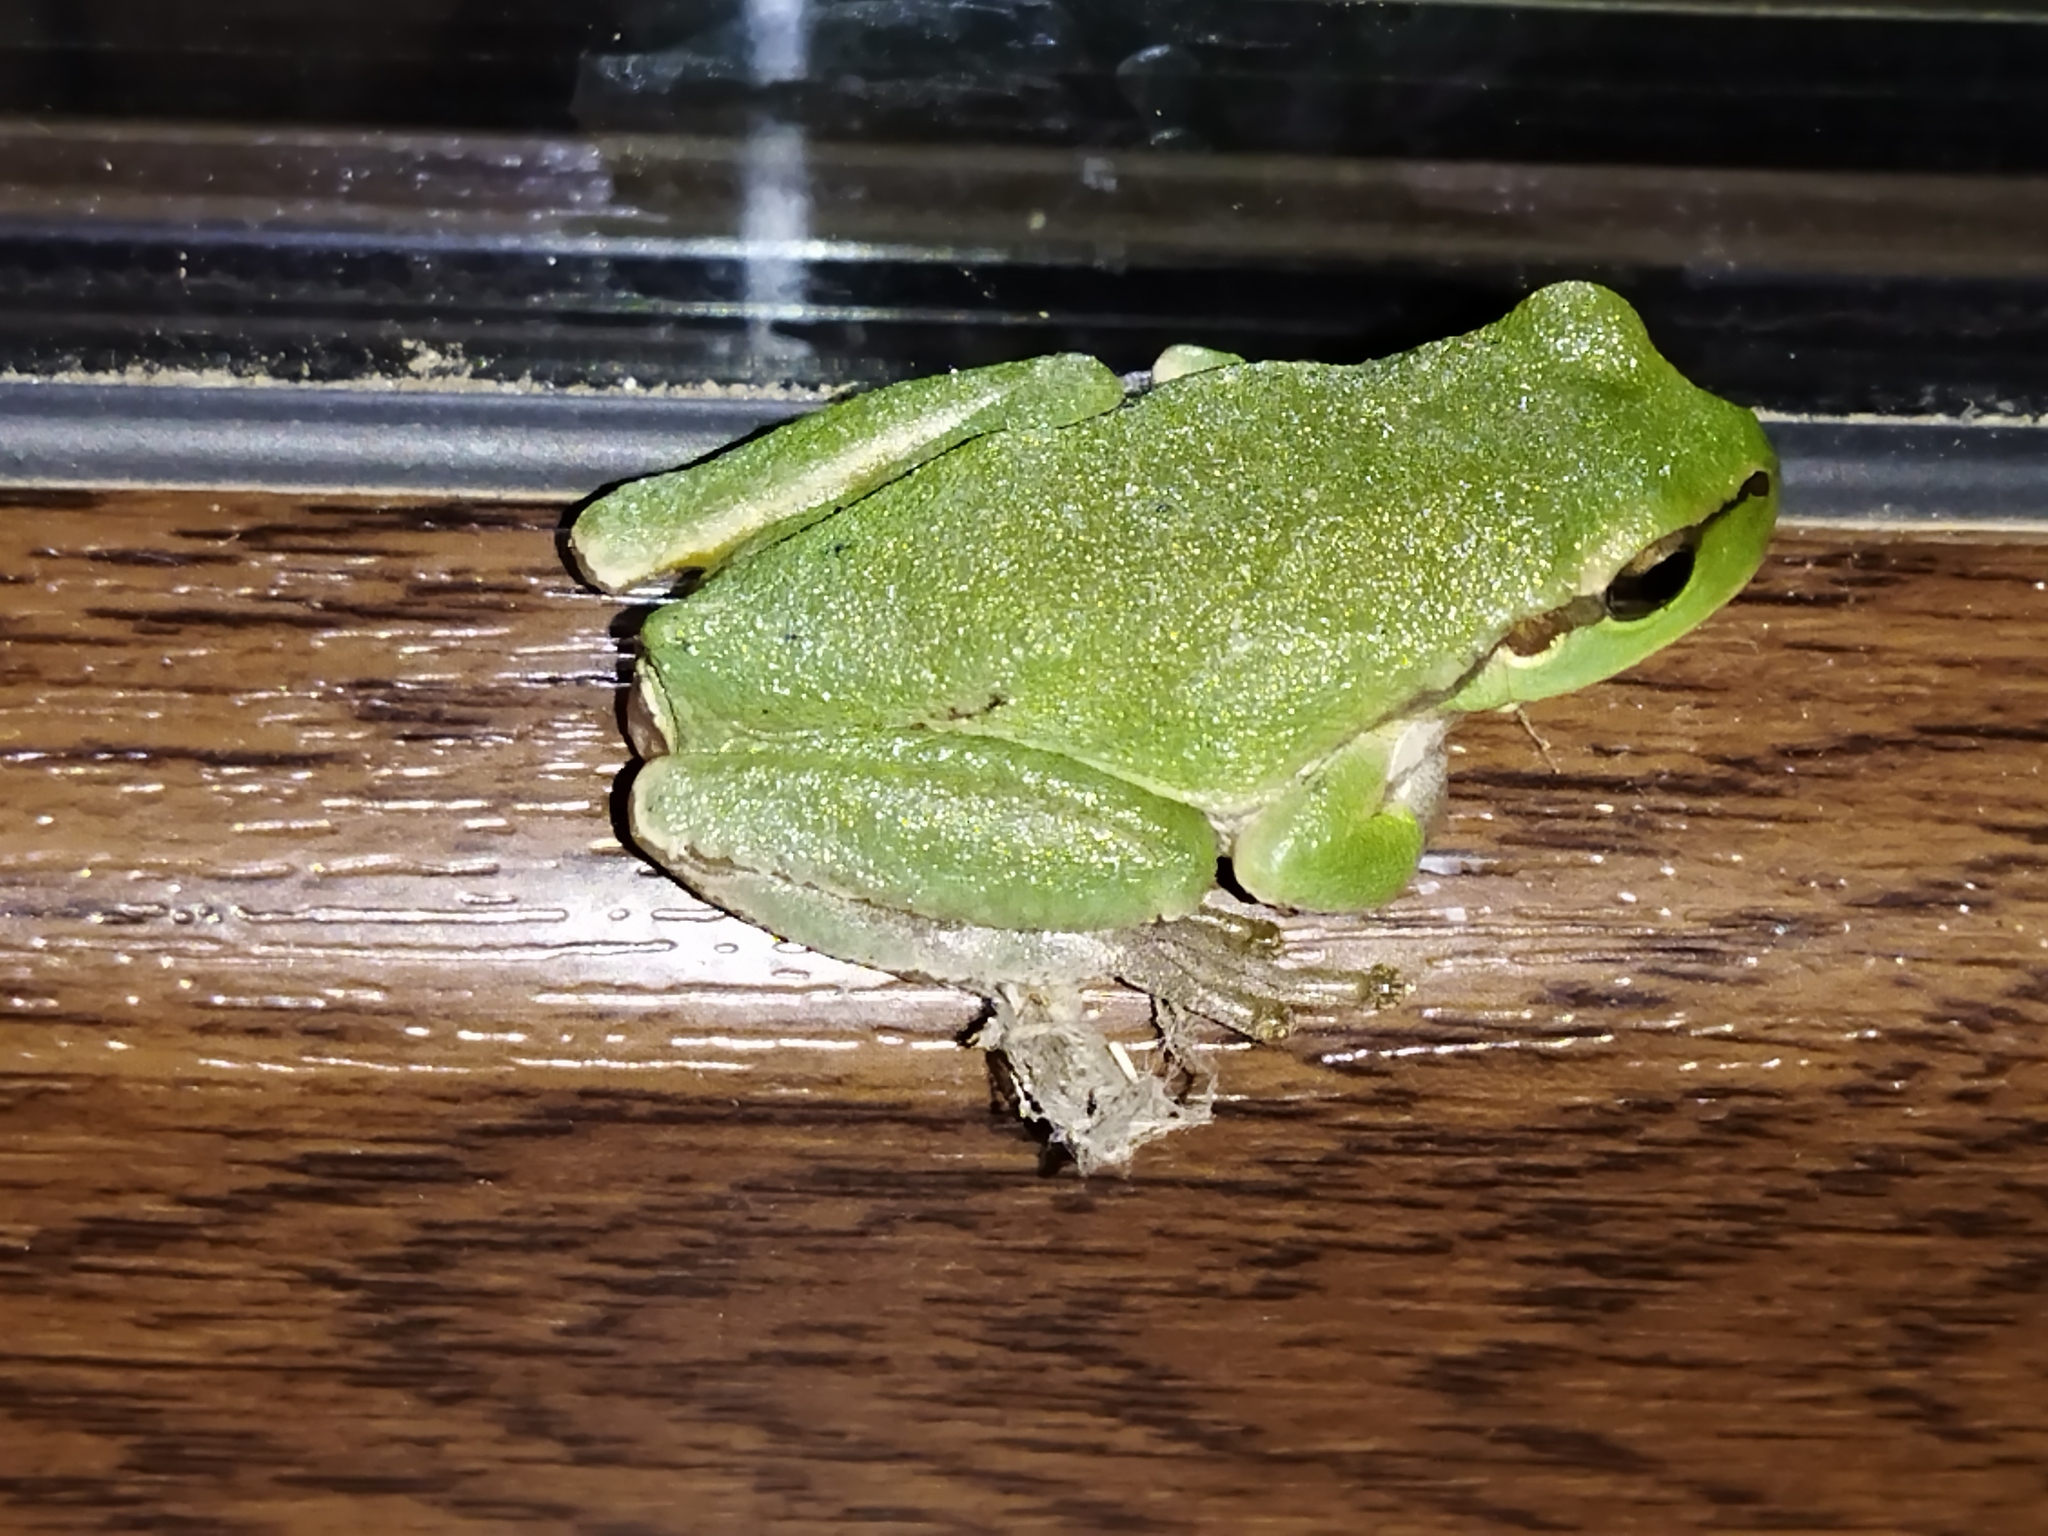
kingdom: Animalia
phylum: Chordata
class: Amphibia
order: Anura
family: Hylidae
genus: Hyla
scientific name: Hyla orientalis
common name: Caucasian treefrog
